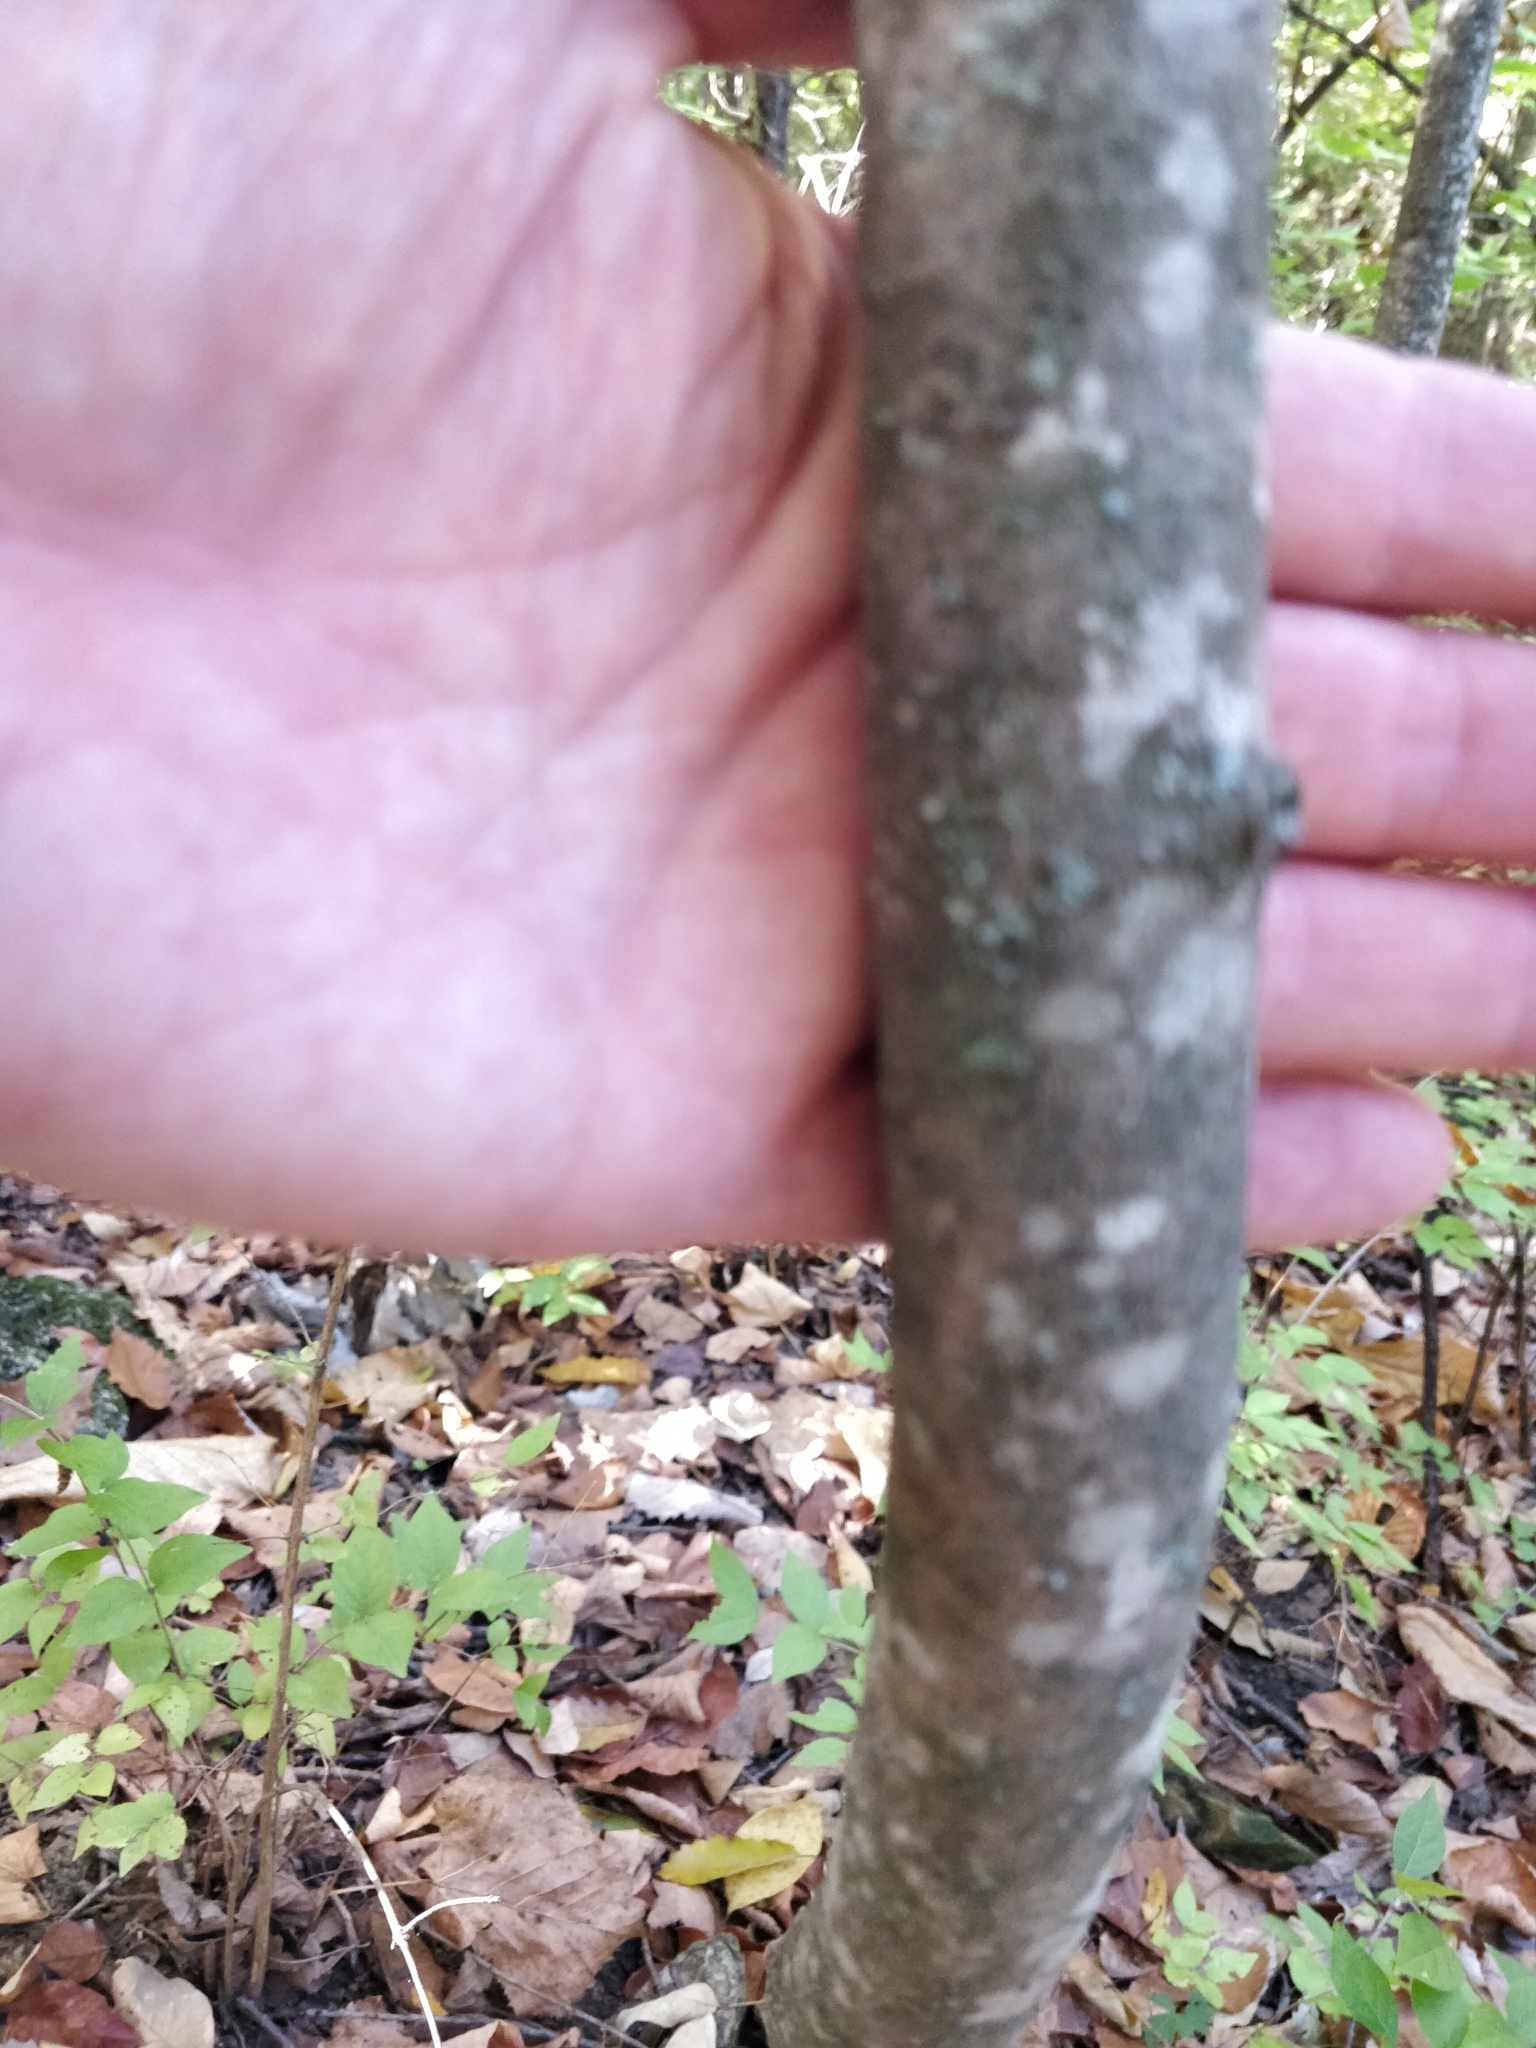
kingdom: Plantae
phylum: Tracheophyta
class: Magnoliopsida
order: Magnoliales
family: Annonaceae
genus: Asimina
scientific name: Asimina triloba
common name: Dog-banana
